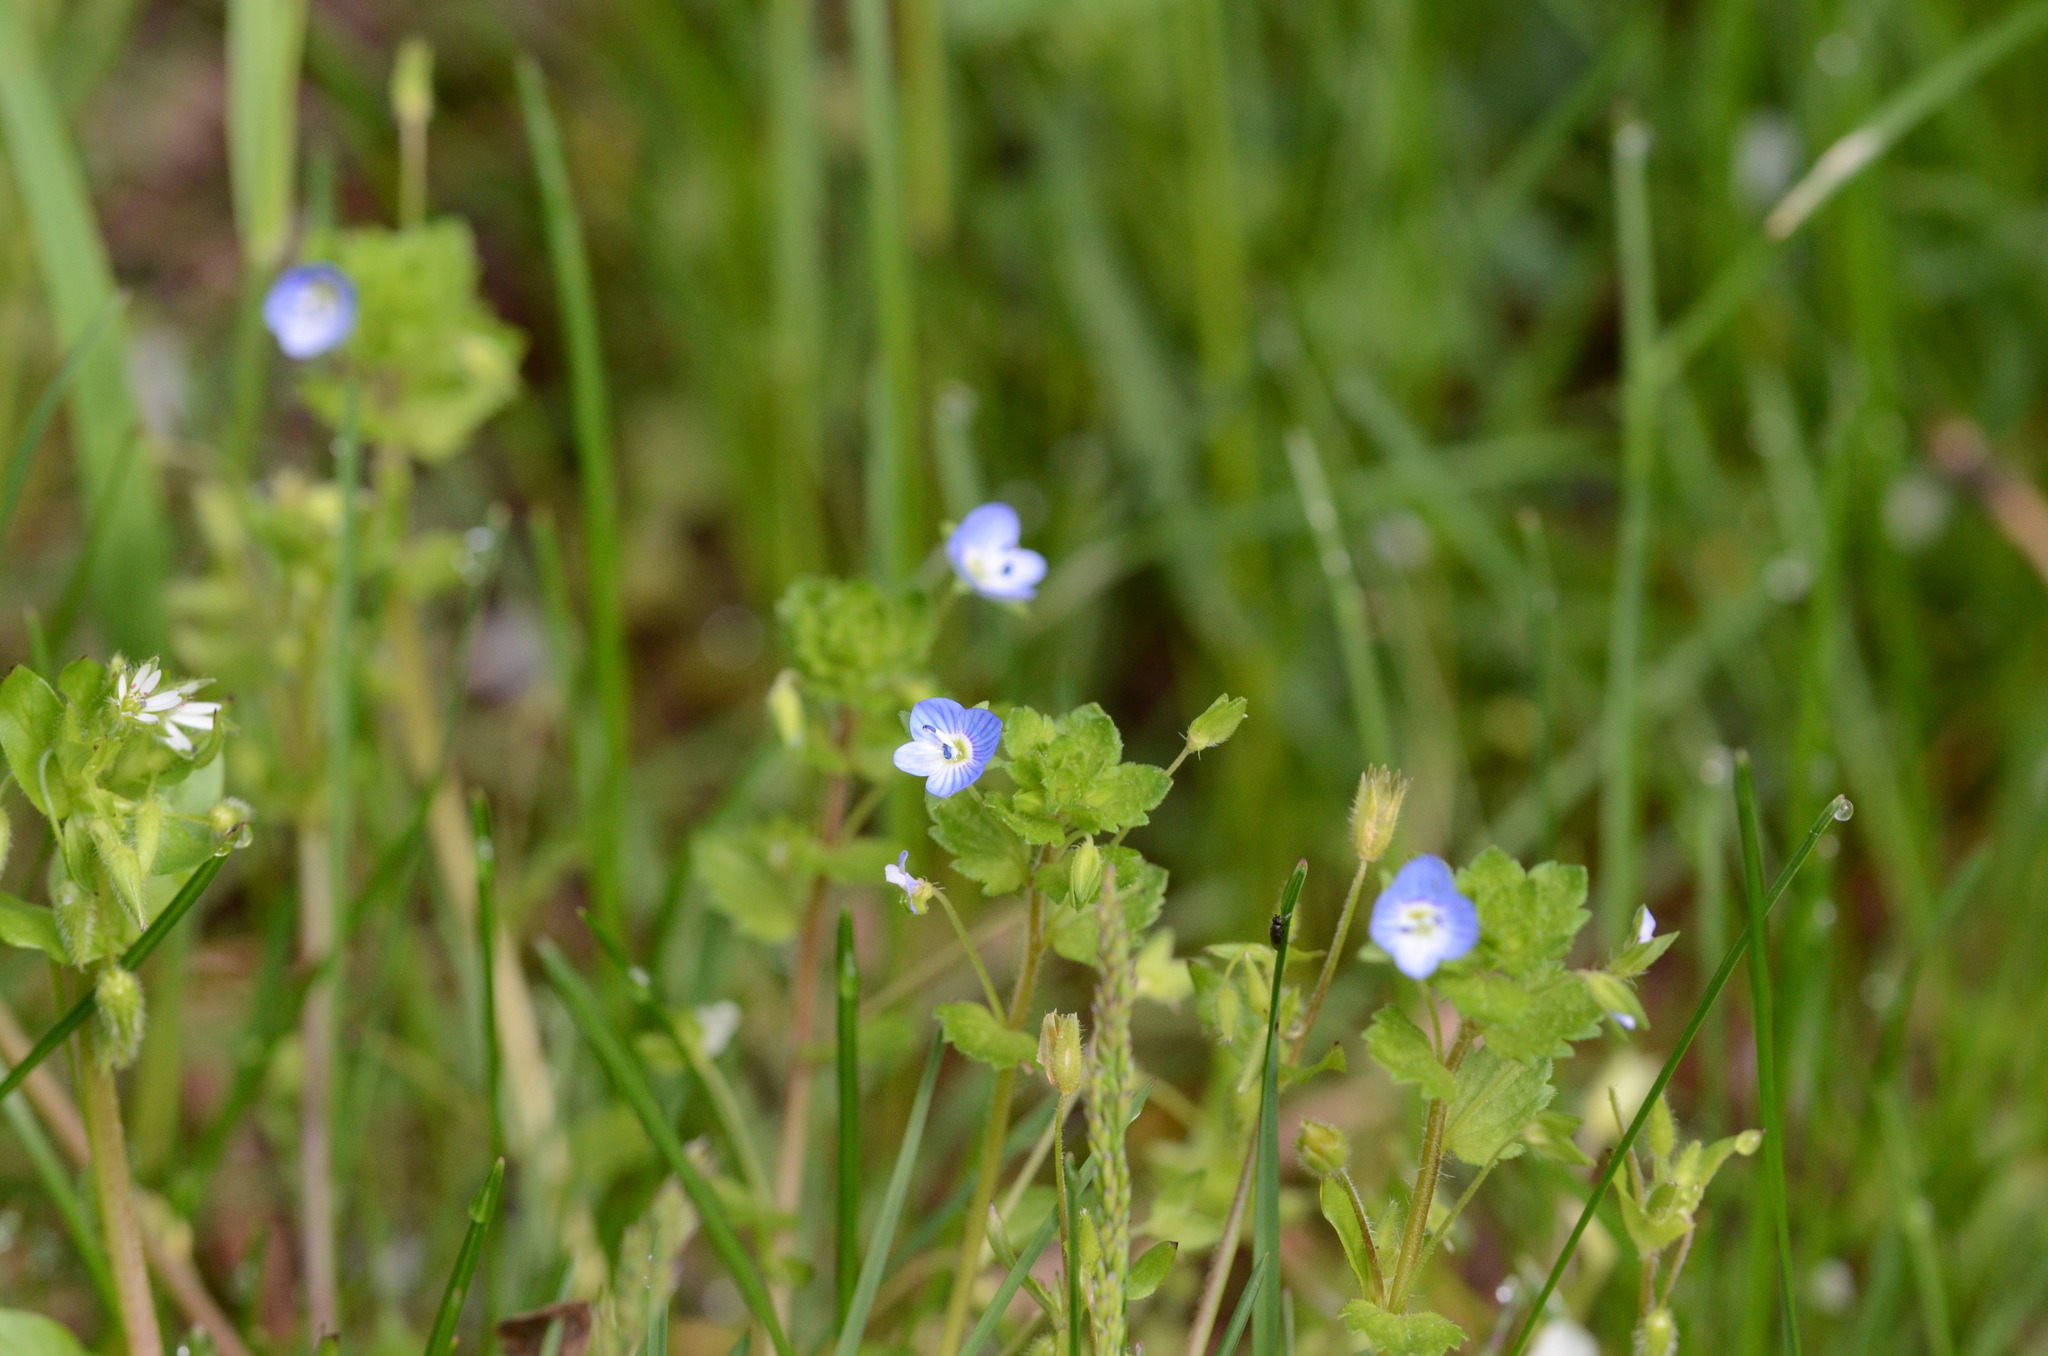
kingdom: Plantae
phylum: Tracheophyta
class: Magnoliopsida
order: Lamiales
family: Plantaginaceae
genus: Veronica
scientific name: Veronica persica
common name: Common field-speedwell
